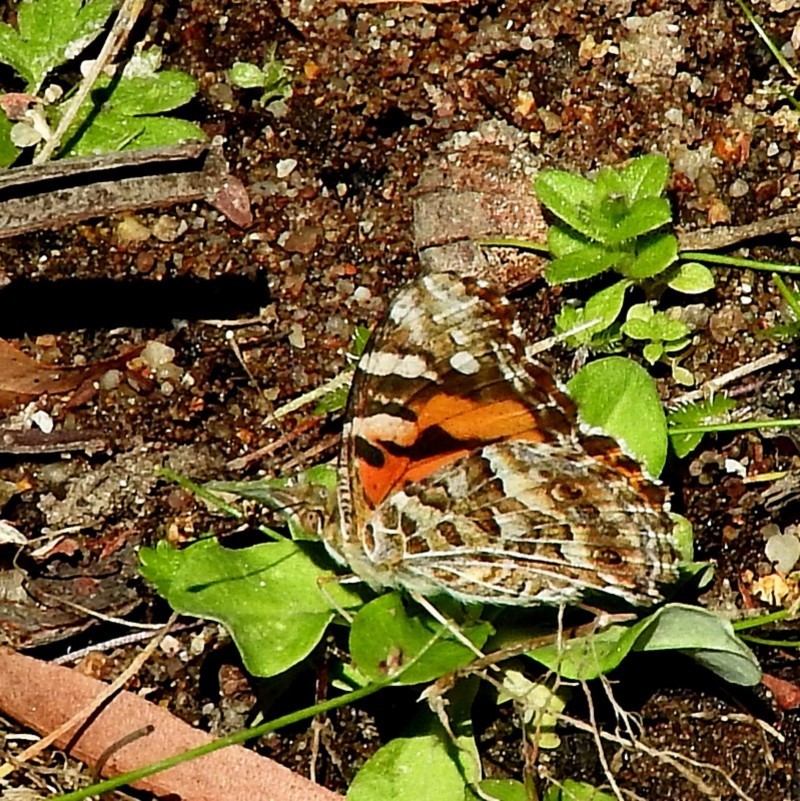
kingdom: Animalia
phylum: Arthropoda
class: Insecta
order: Lepidoptera
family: Nymphalidae
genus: Vanessa
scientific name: Vanessa kershawi
